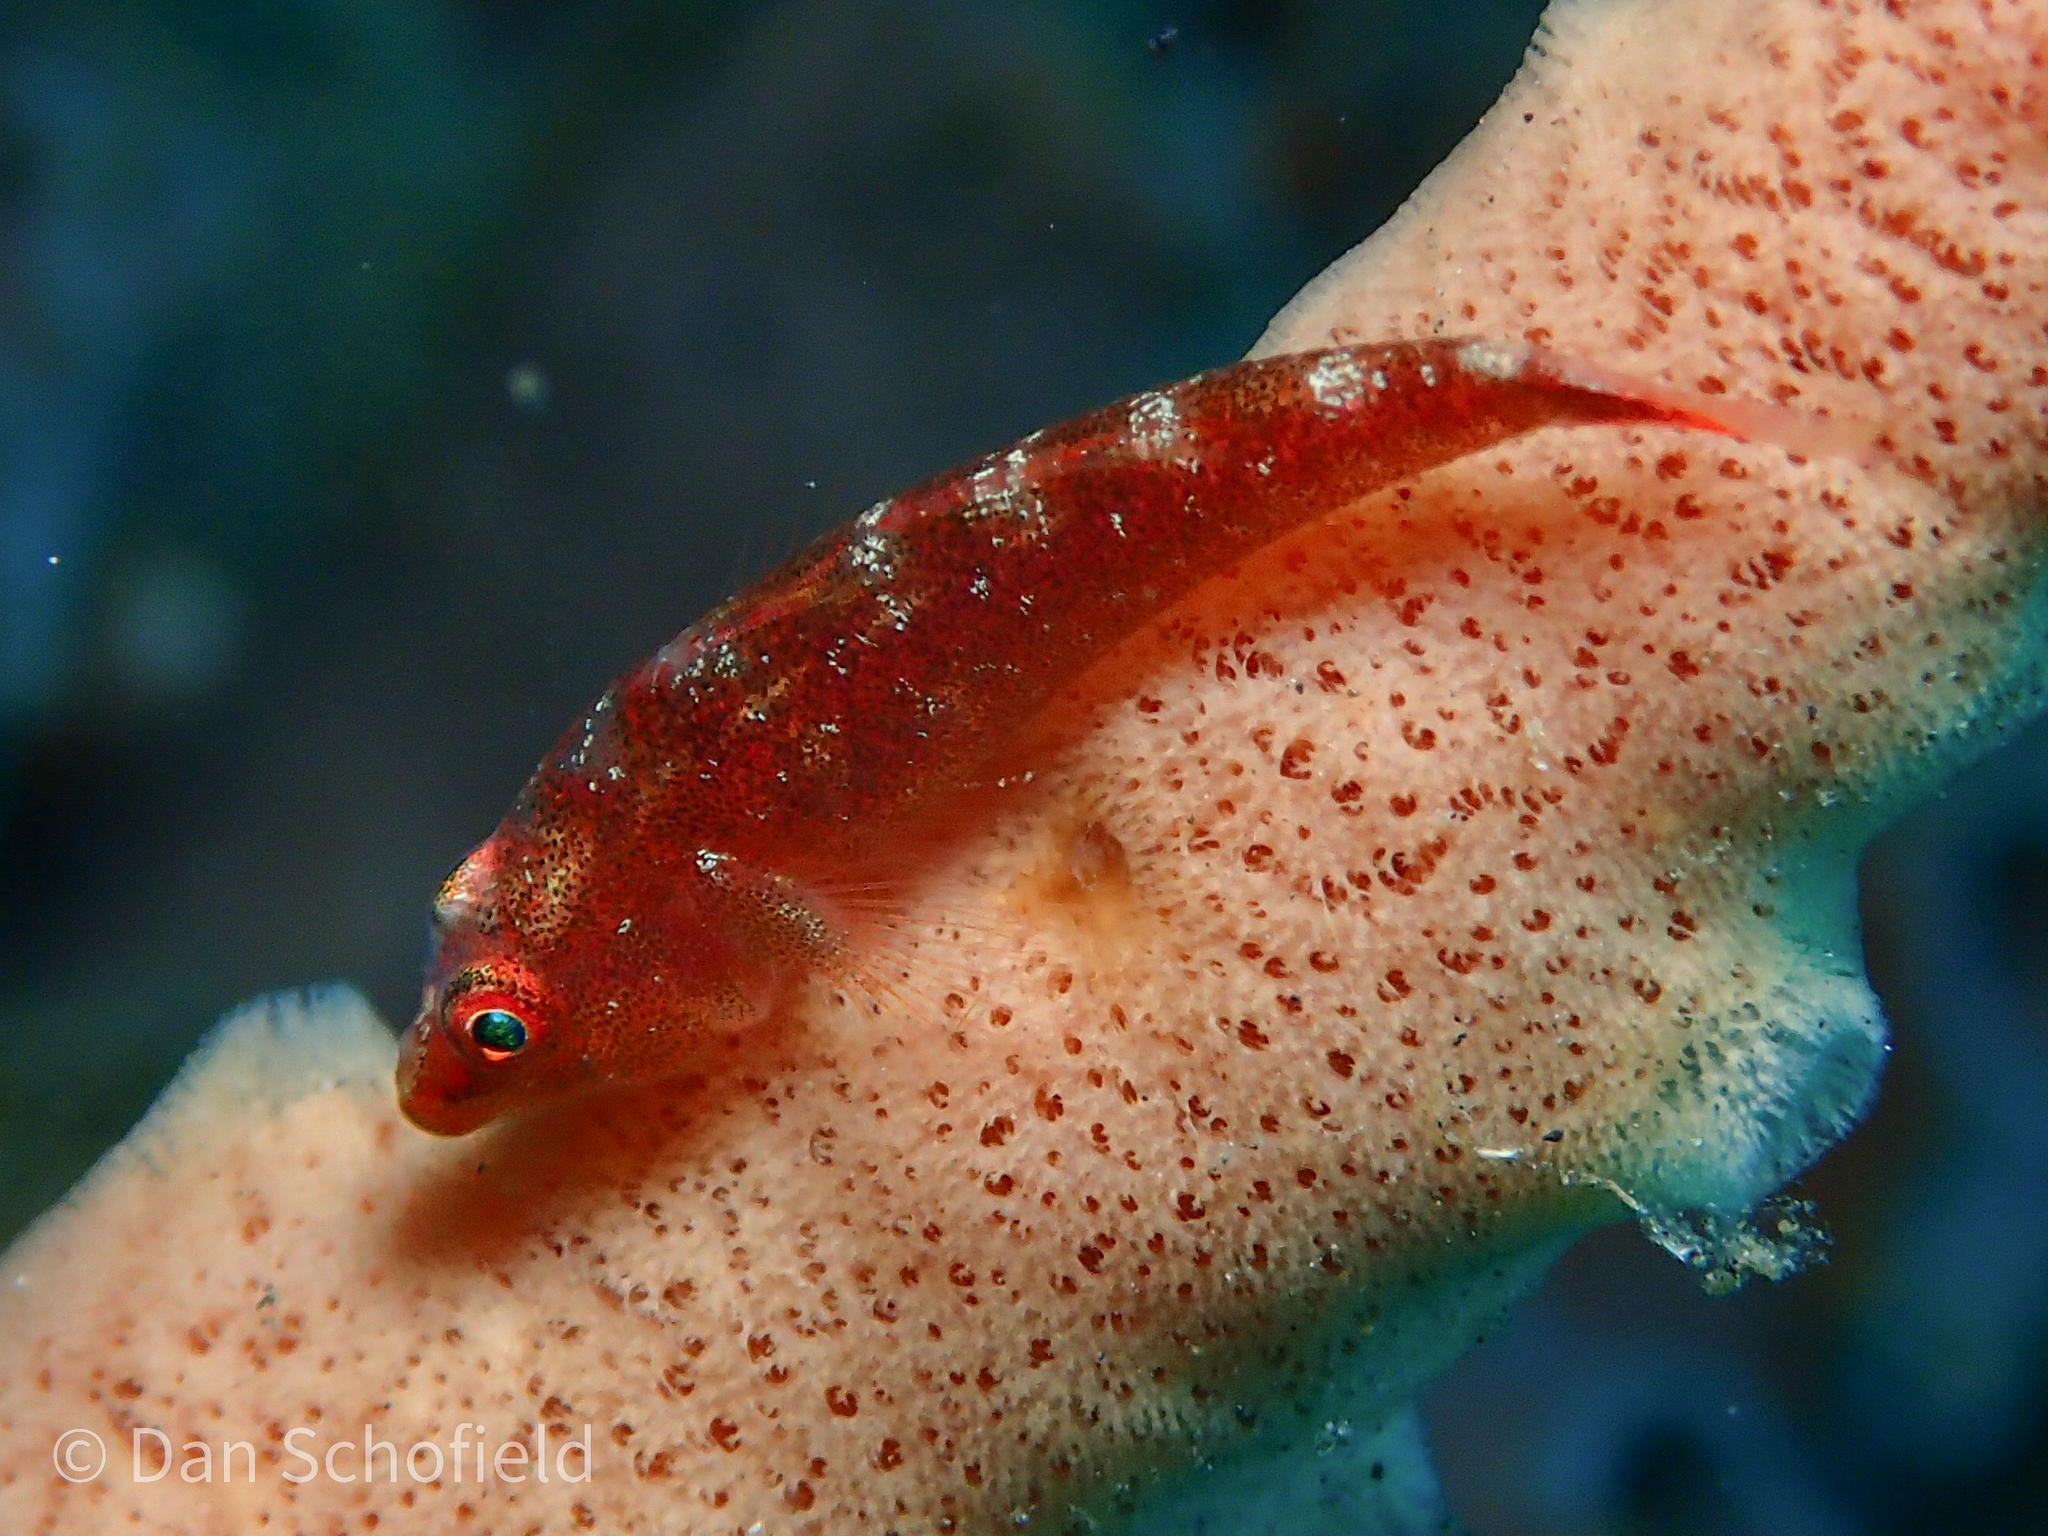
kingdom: Animalia
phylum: Chordata
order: Perciformes
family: Gobiidae
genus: Pleurosicya
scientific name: Pleurosicya mossambica
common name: Common ghost goby
